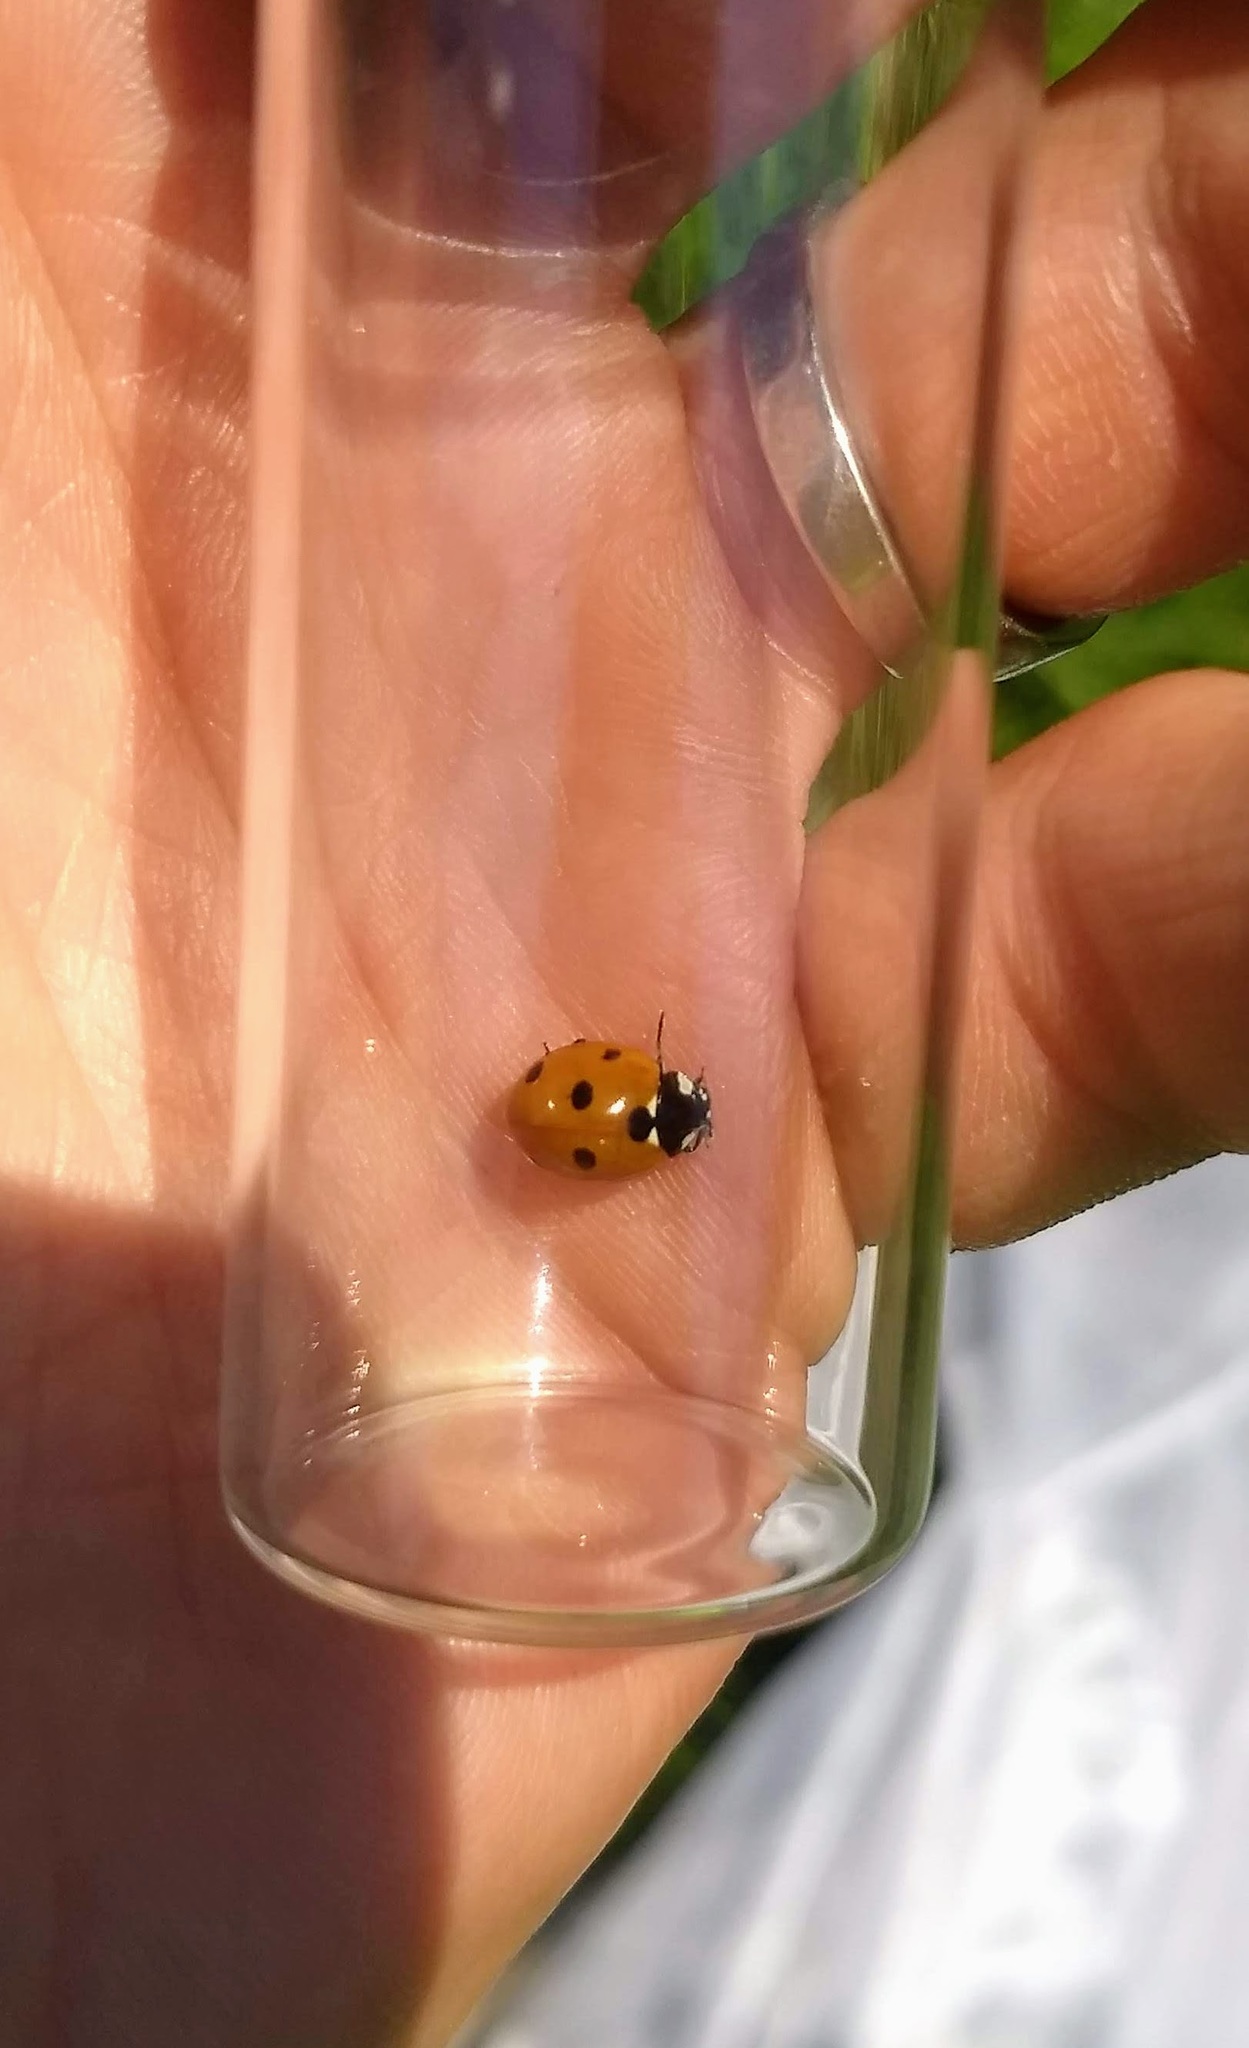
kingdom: Animalia
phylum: Arthropoda
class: Insecta
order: Coleoptera
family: Coccinellidae
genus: Coccinella
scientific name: Coccinella septempunctata
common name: Sevenspotted lady beetle
